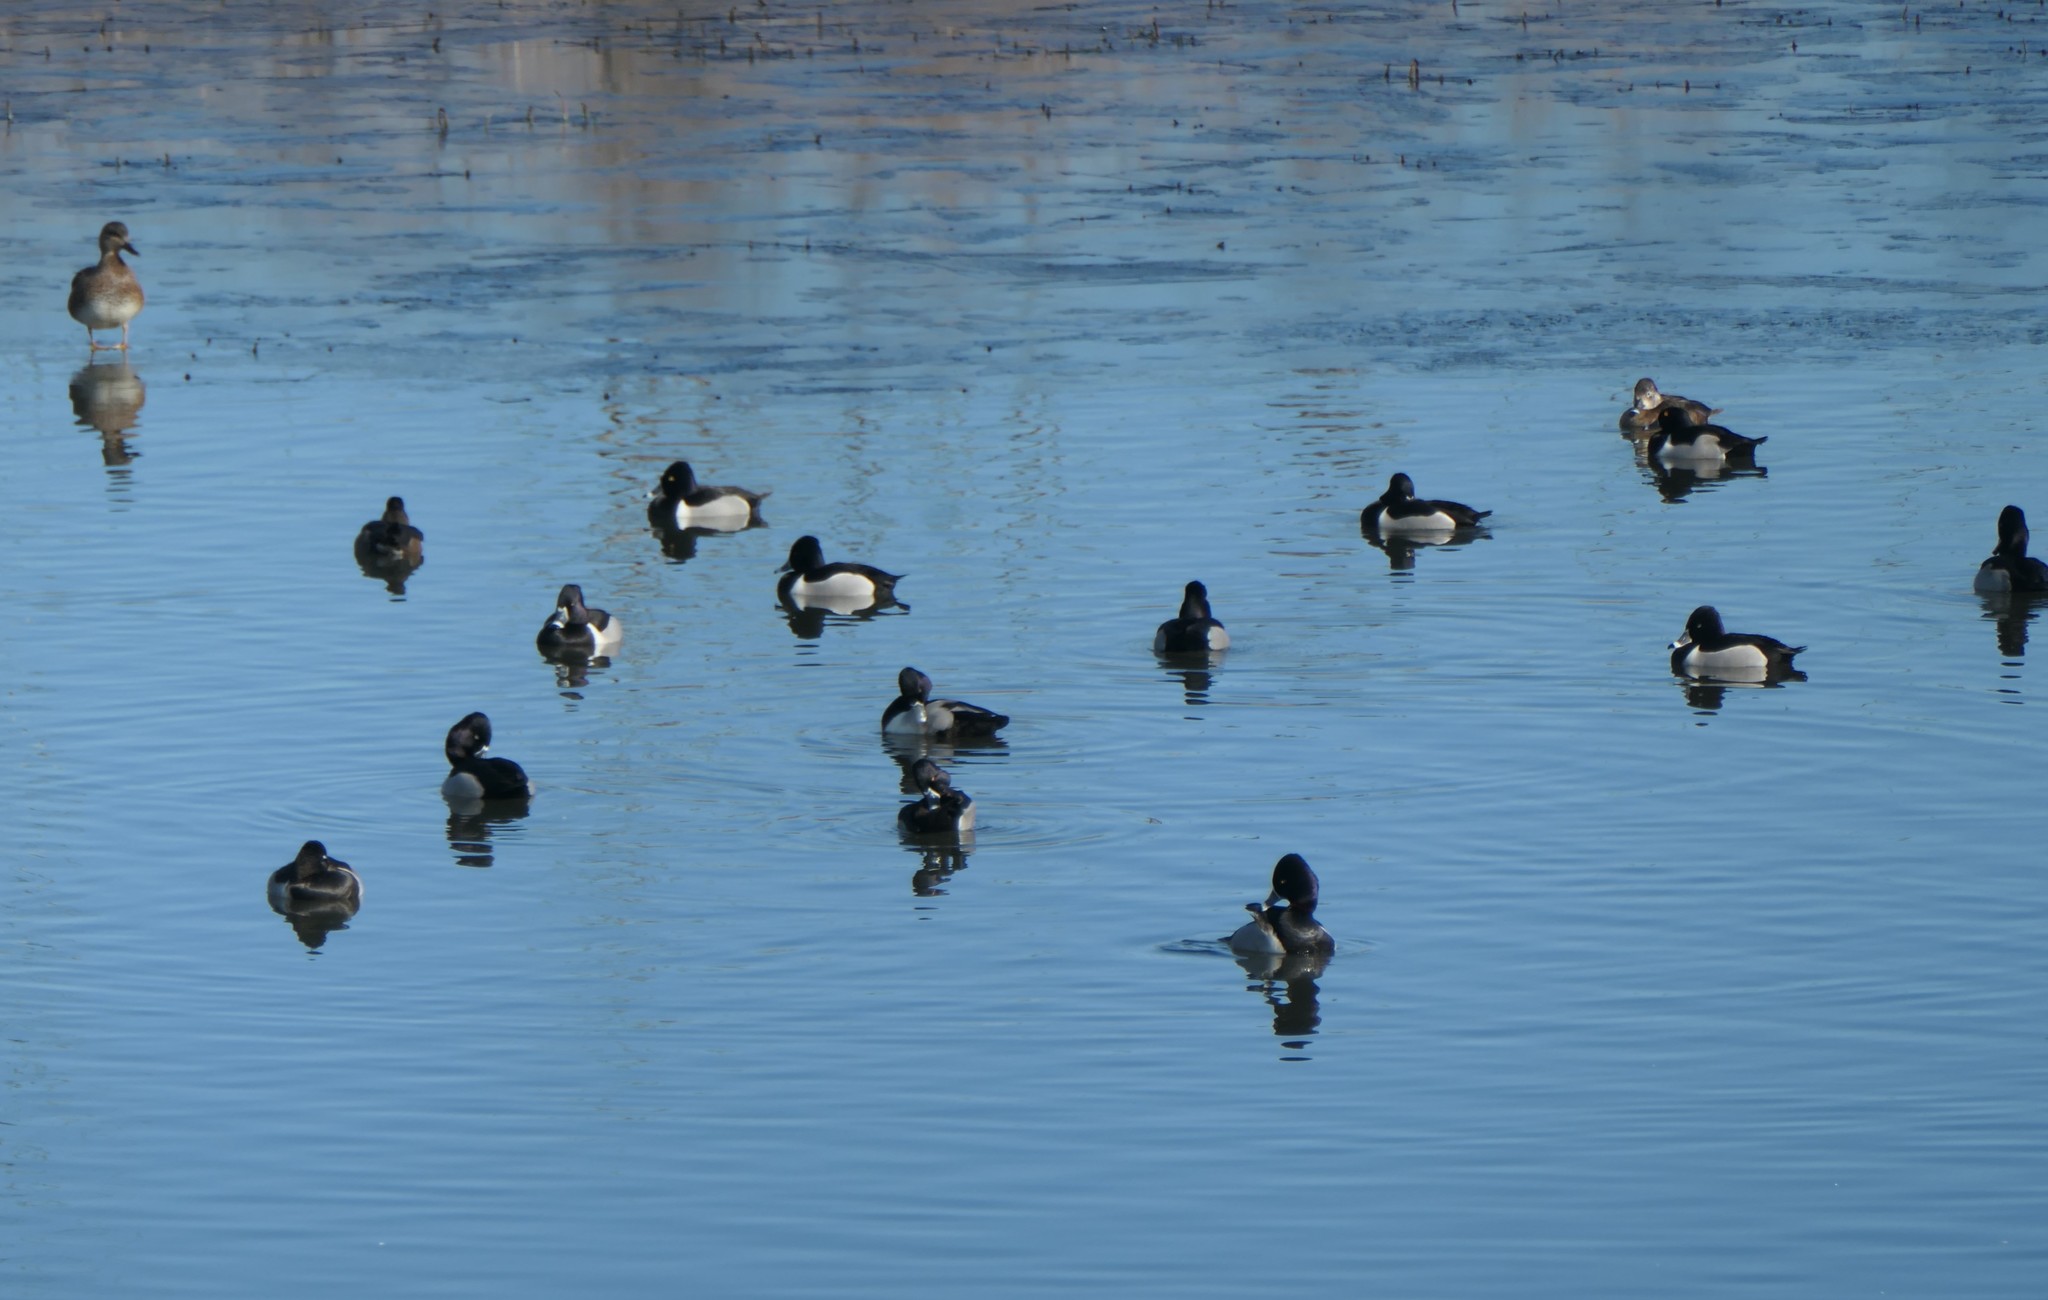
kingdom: Animalia
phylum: Chordata
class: Aves
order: Anseriformes
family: Anatidae
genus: Aythya
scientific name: Aythya collaris
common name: Ring-necked duck
